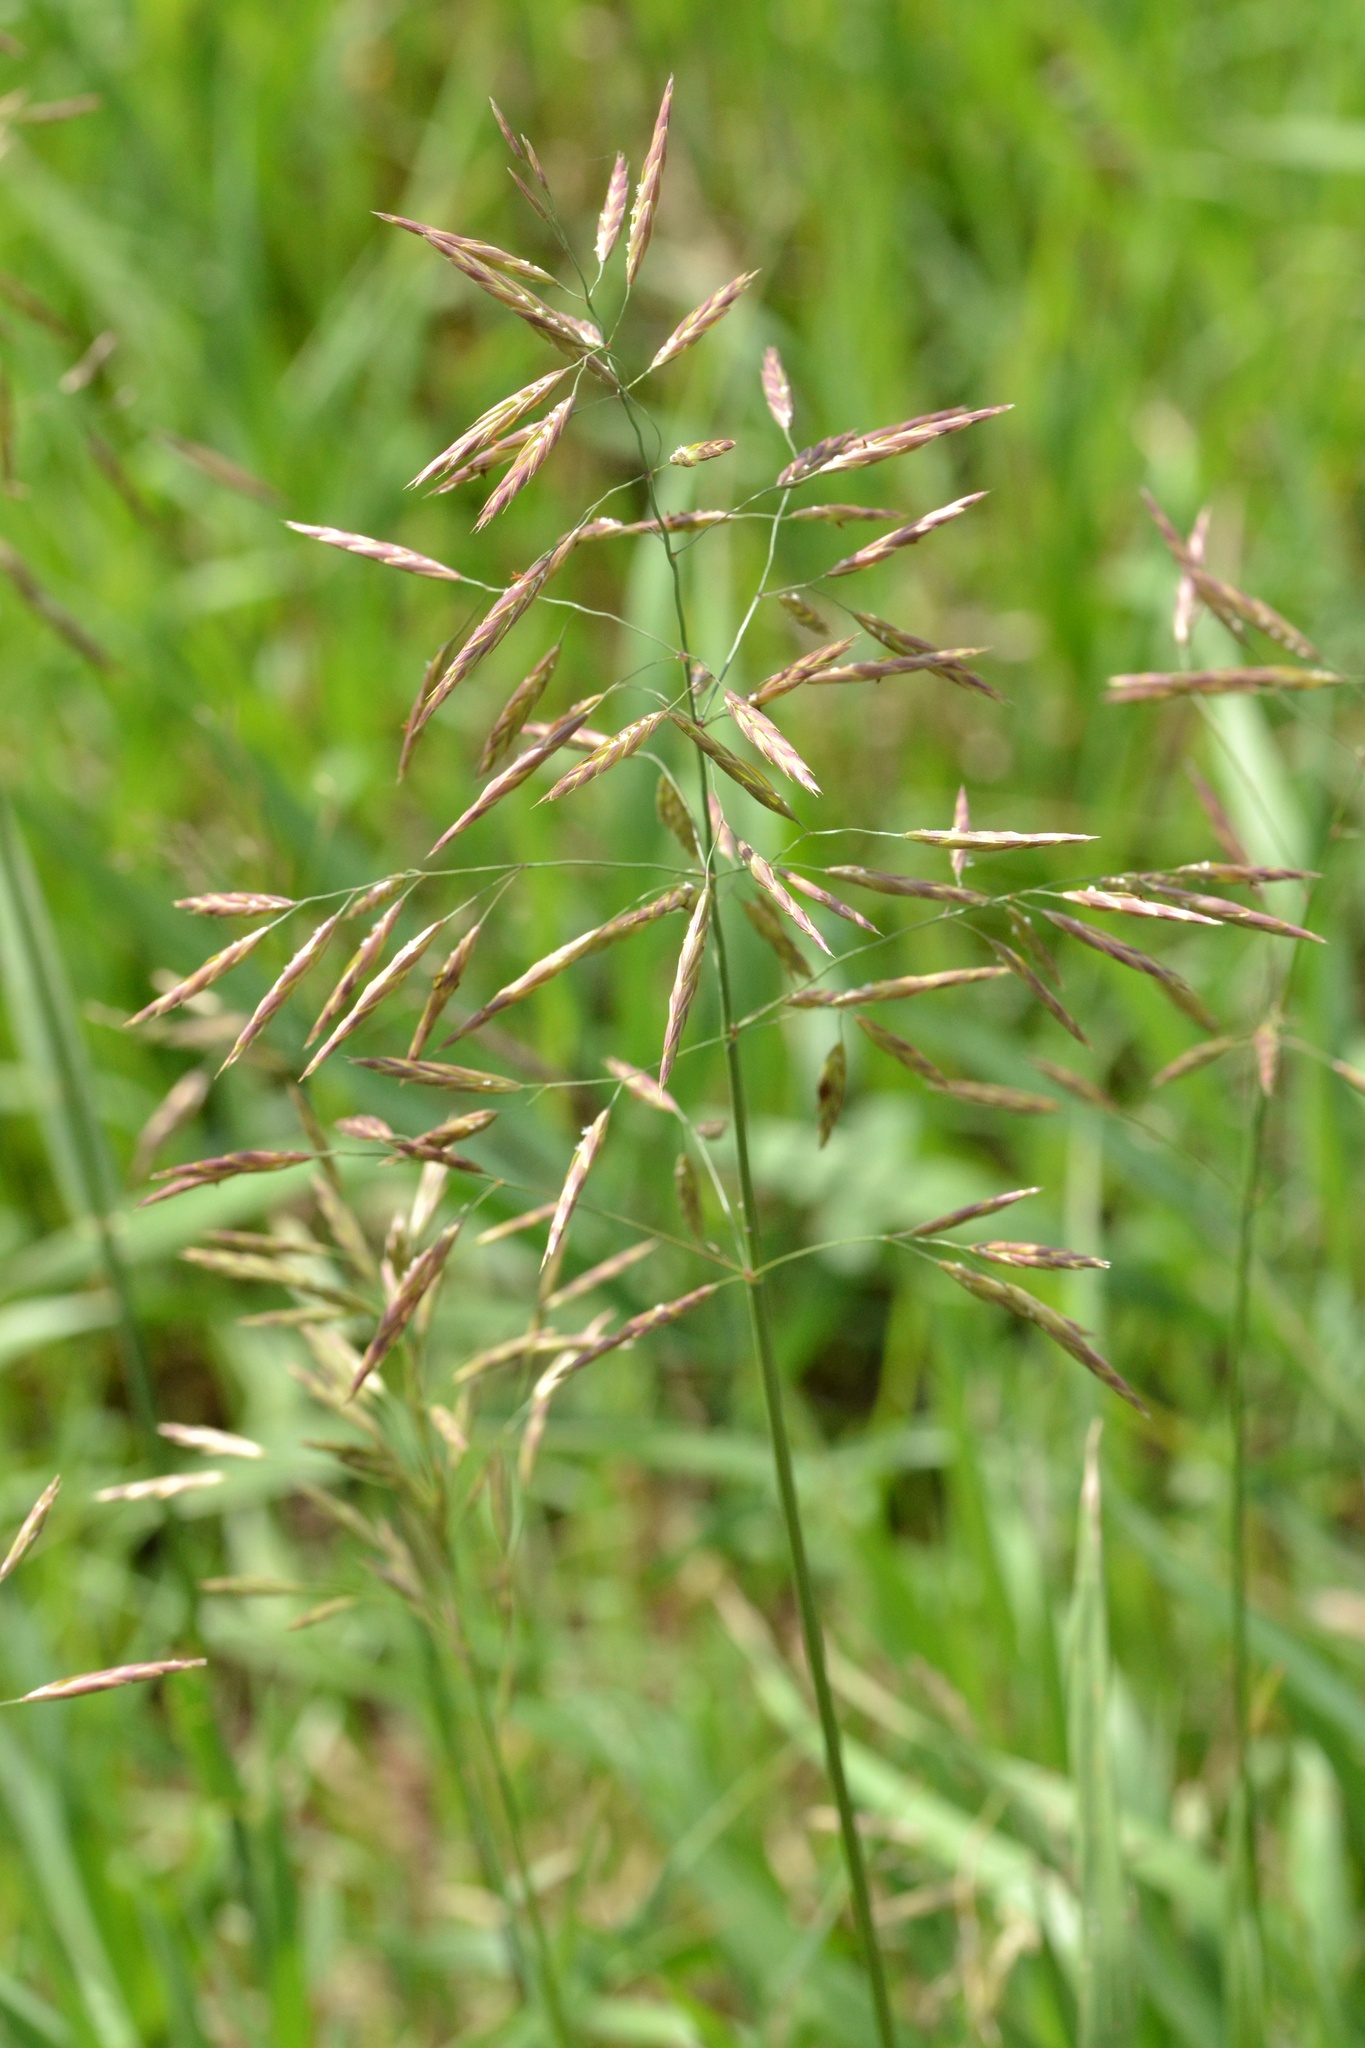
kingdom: Plantae
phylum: Tracheophyta
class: Liliopsida
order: Poales
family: Poaceae
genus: Bromus
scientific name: Bromus inermis
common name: Smooth brome
